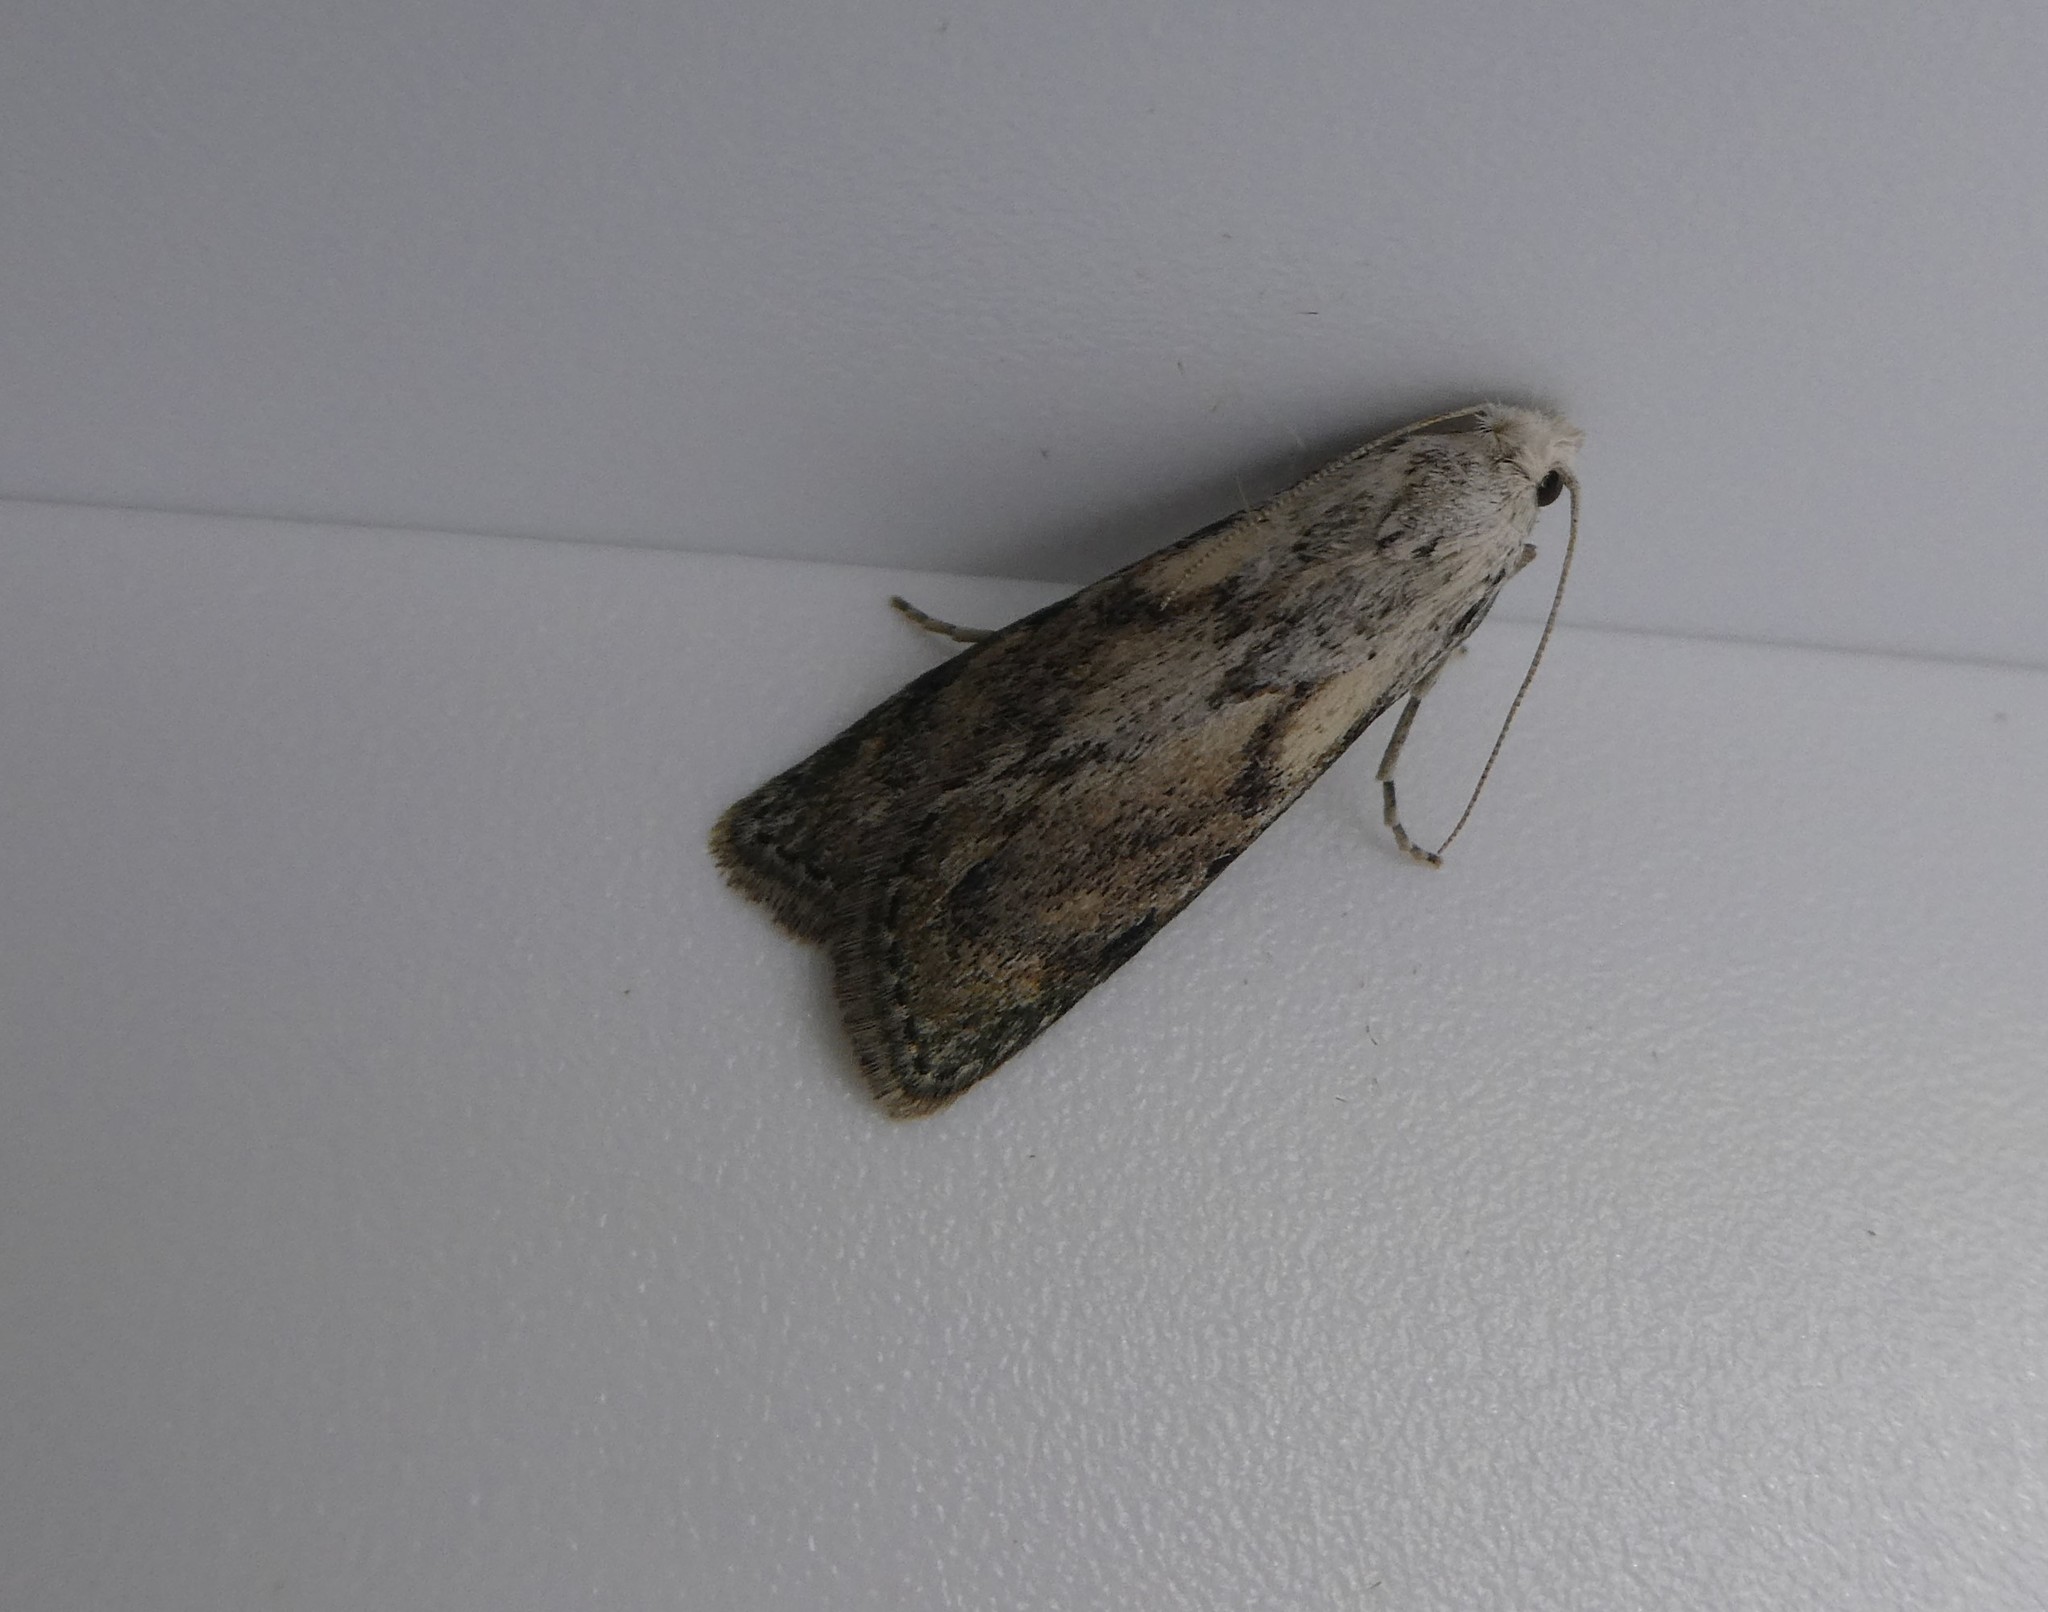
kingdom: Animalia
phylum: Arthropoda
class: Insecta
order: Lepidoptera
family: Pyralidae
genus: Aphomia
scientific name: Aphomia sociella
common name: Bee moth
